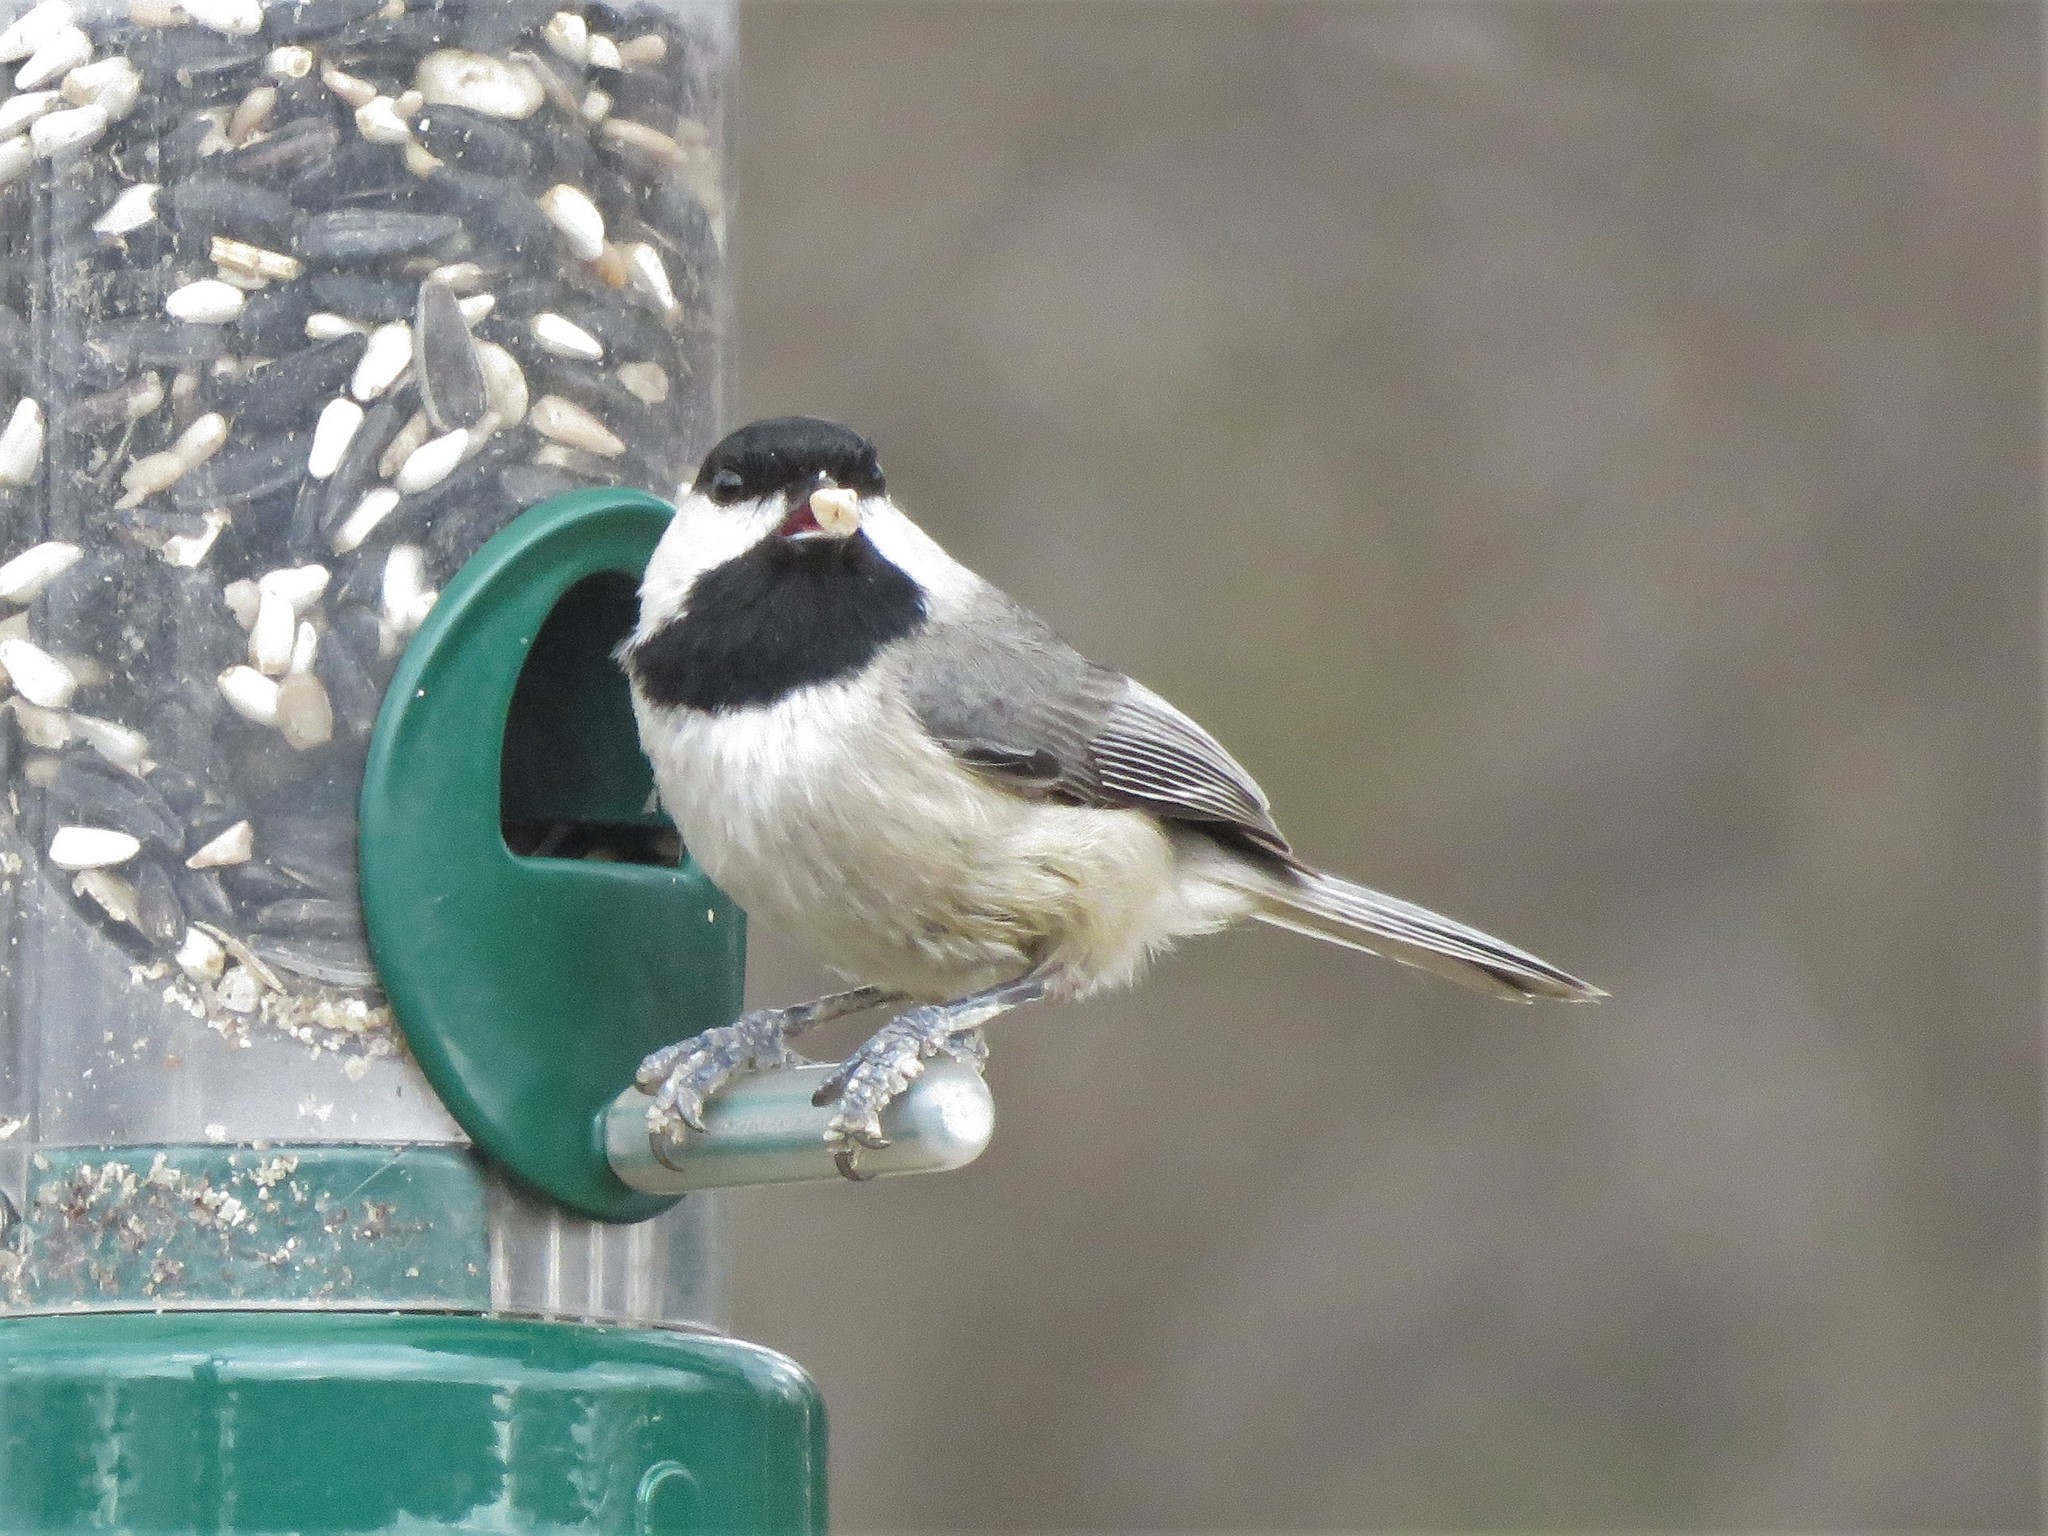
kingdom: Animalia
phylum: Chordata
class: Aves
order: Passeriformes
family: Paridae
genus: Poecile
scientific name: Poecile carolinensis
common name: Carolina chickadee
